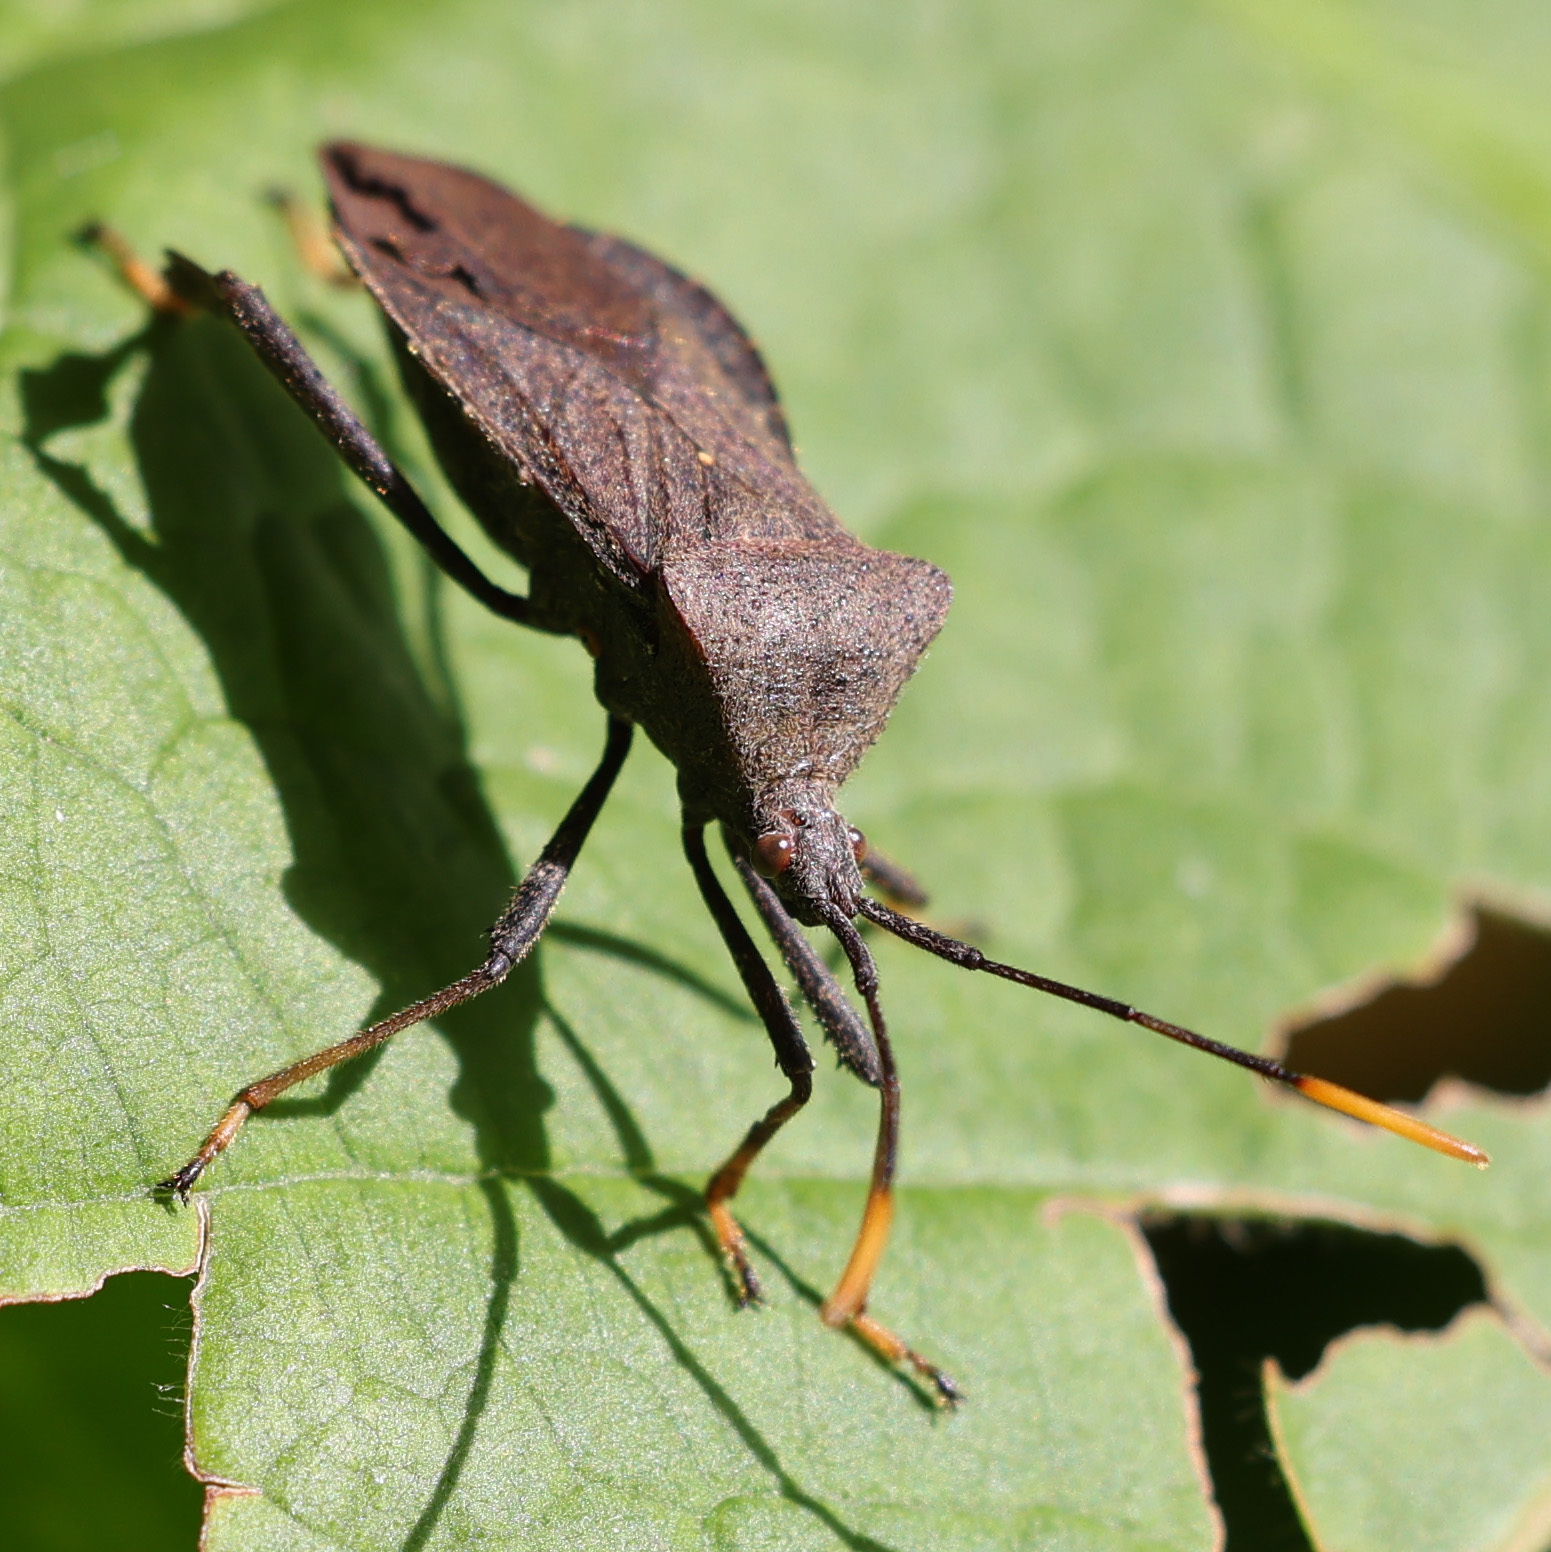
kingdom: Animalia
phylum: Arthropoda
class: Insecta
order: Hemiptera
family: Coreidae
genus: Acanthocephala
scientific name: Acanthocephala terminalis
